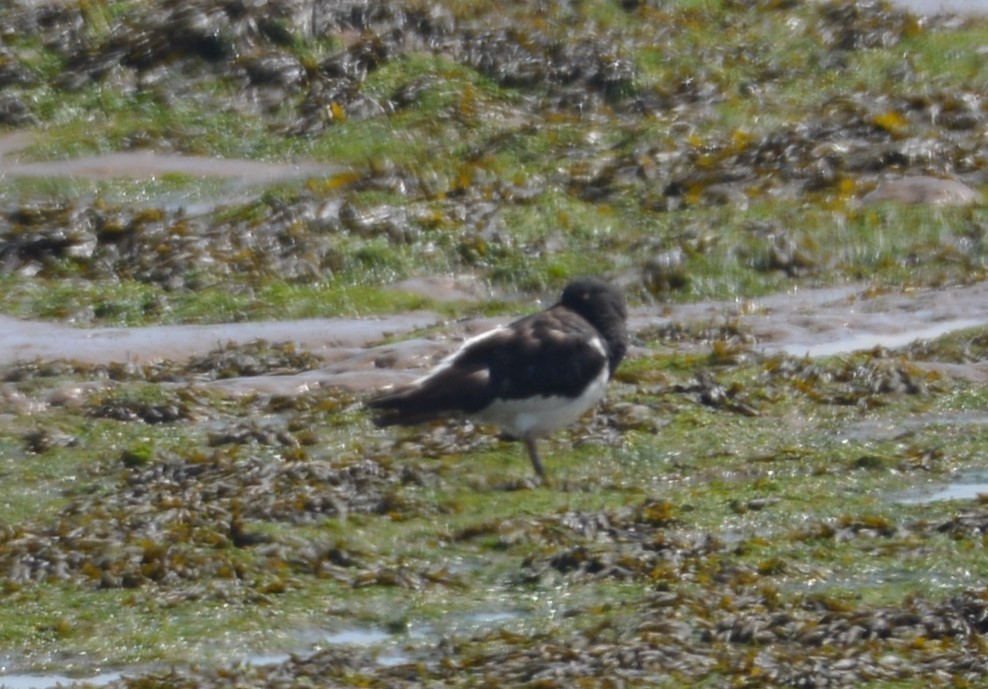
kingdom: Animalia
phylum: Chordata
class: Aves
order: Charadriiformes
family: Haematopodidae
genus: Haematopus
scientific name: Haematopus ostralegus
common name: Eurasian oystercatcher
